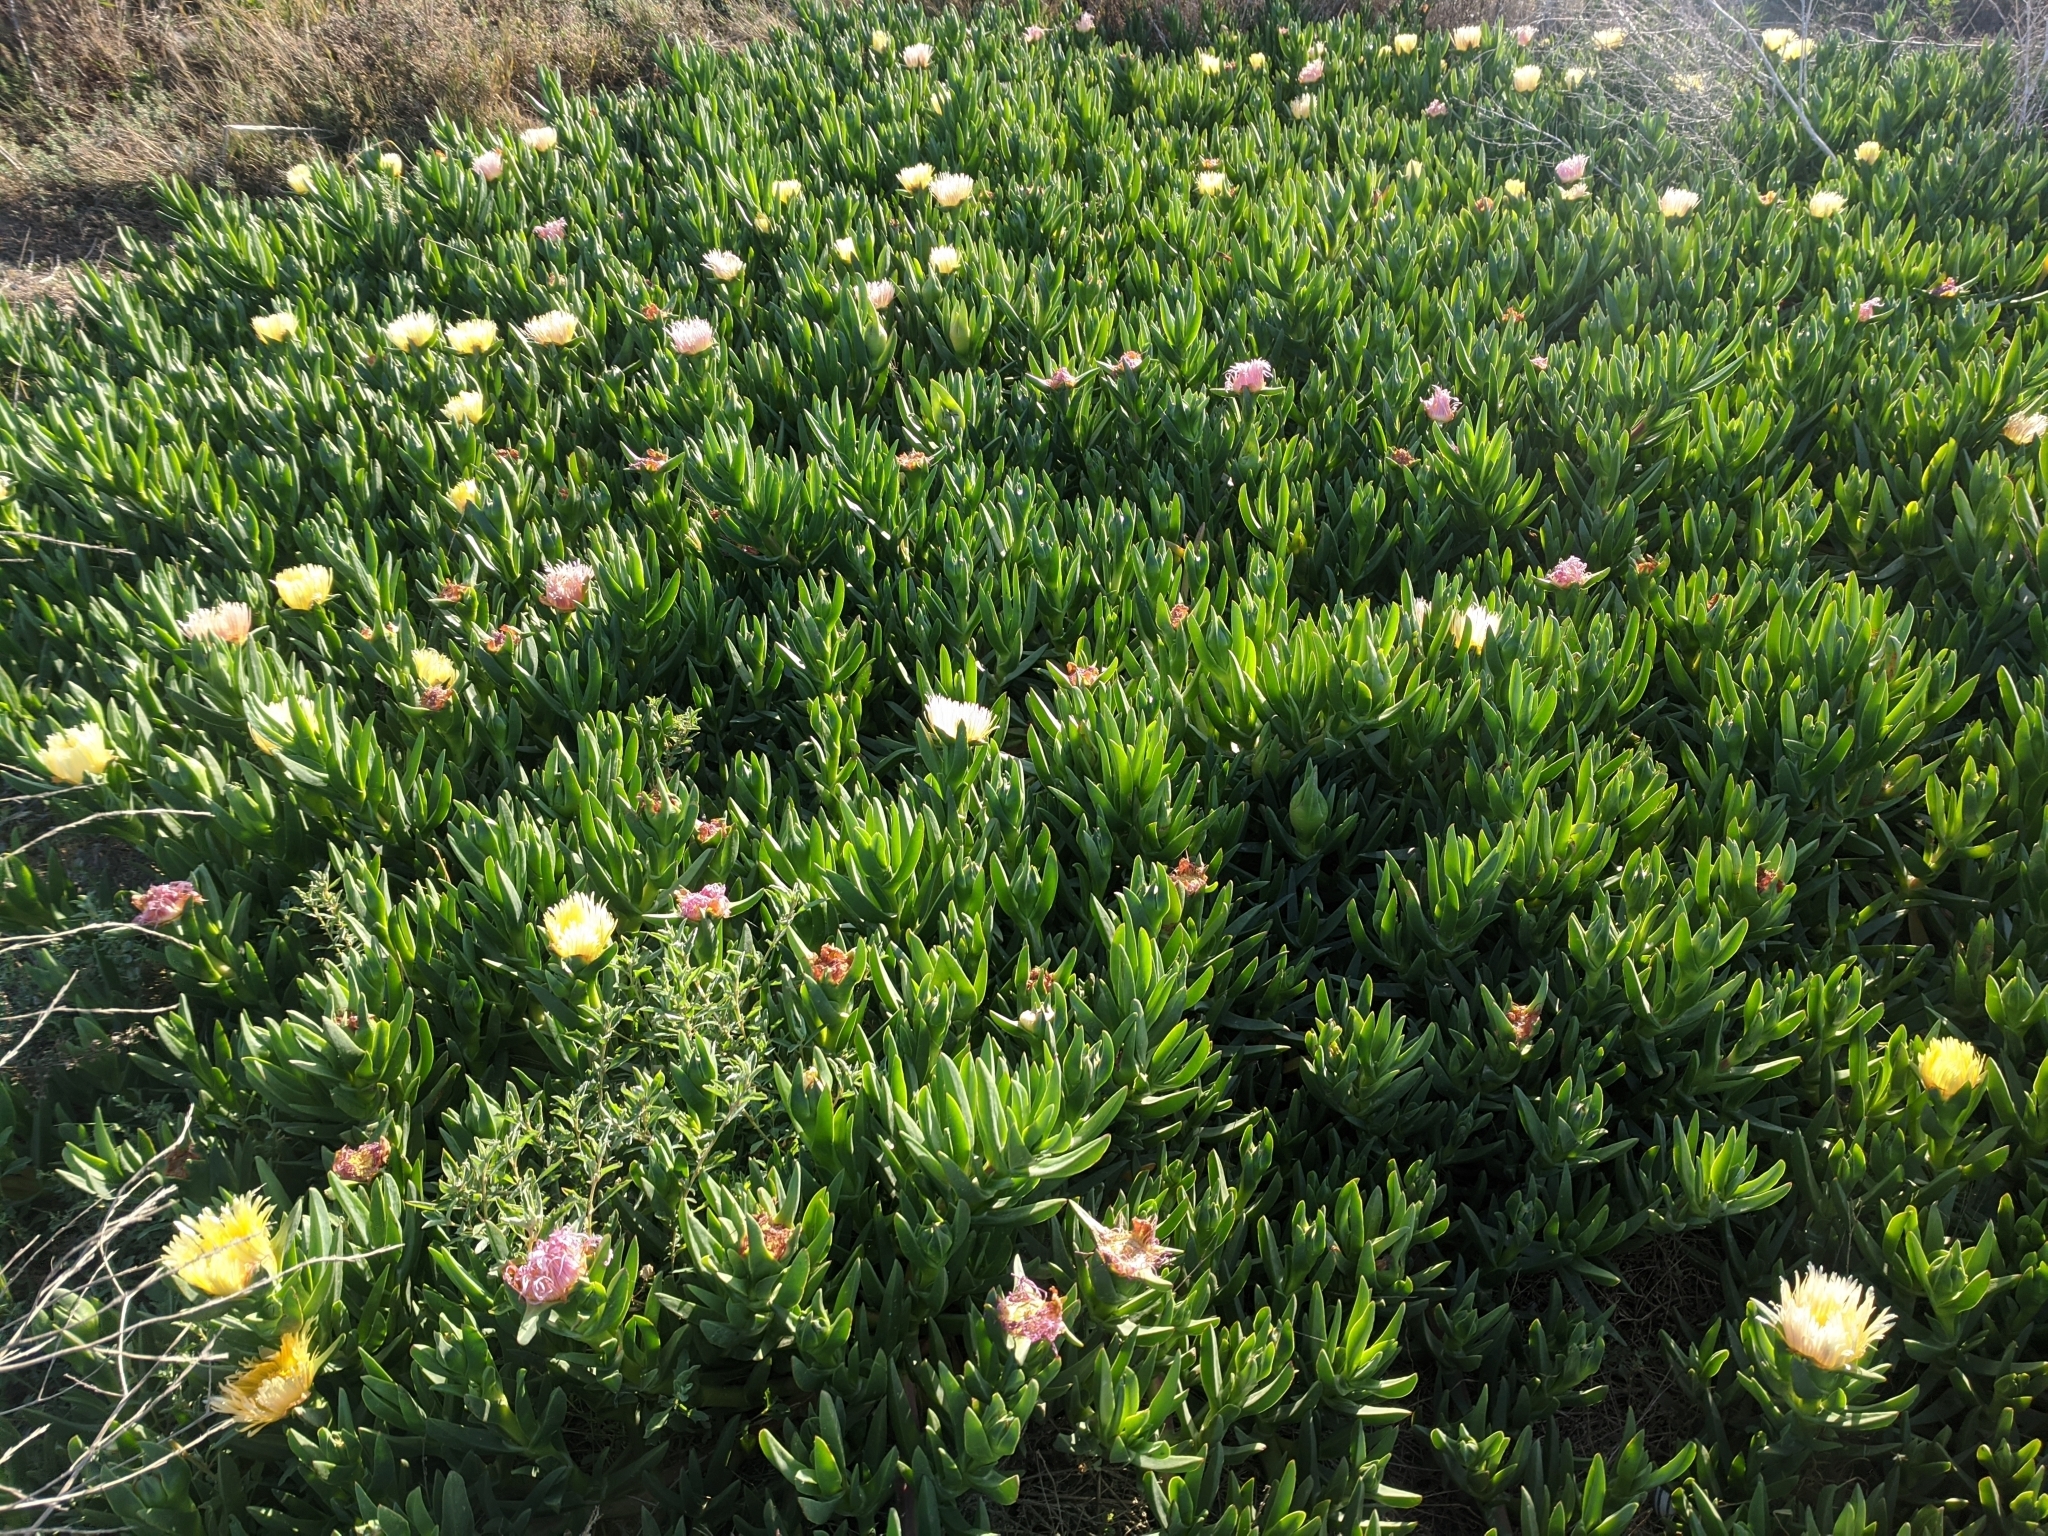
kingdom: Plantae
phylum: Tracheophyta
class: Magnoliopsida
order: Caryophyllales
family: Aizoaceae
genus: Carpobrotus
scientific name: Carpobrotus edulis
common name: Hottentot-fig
